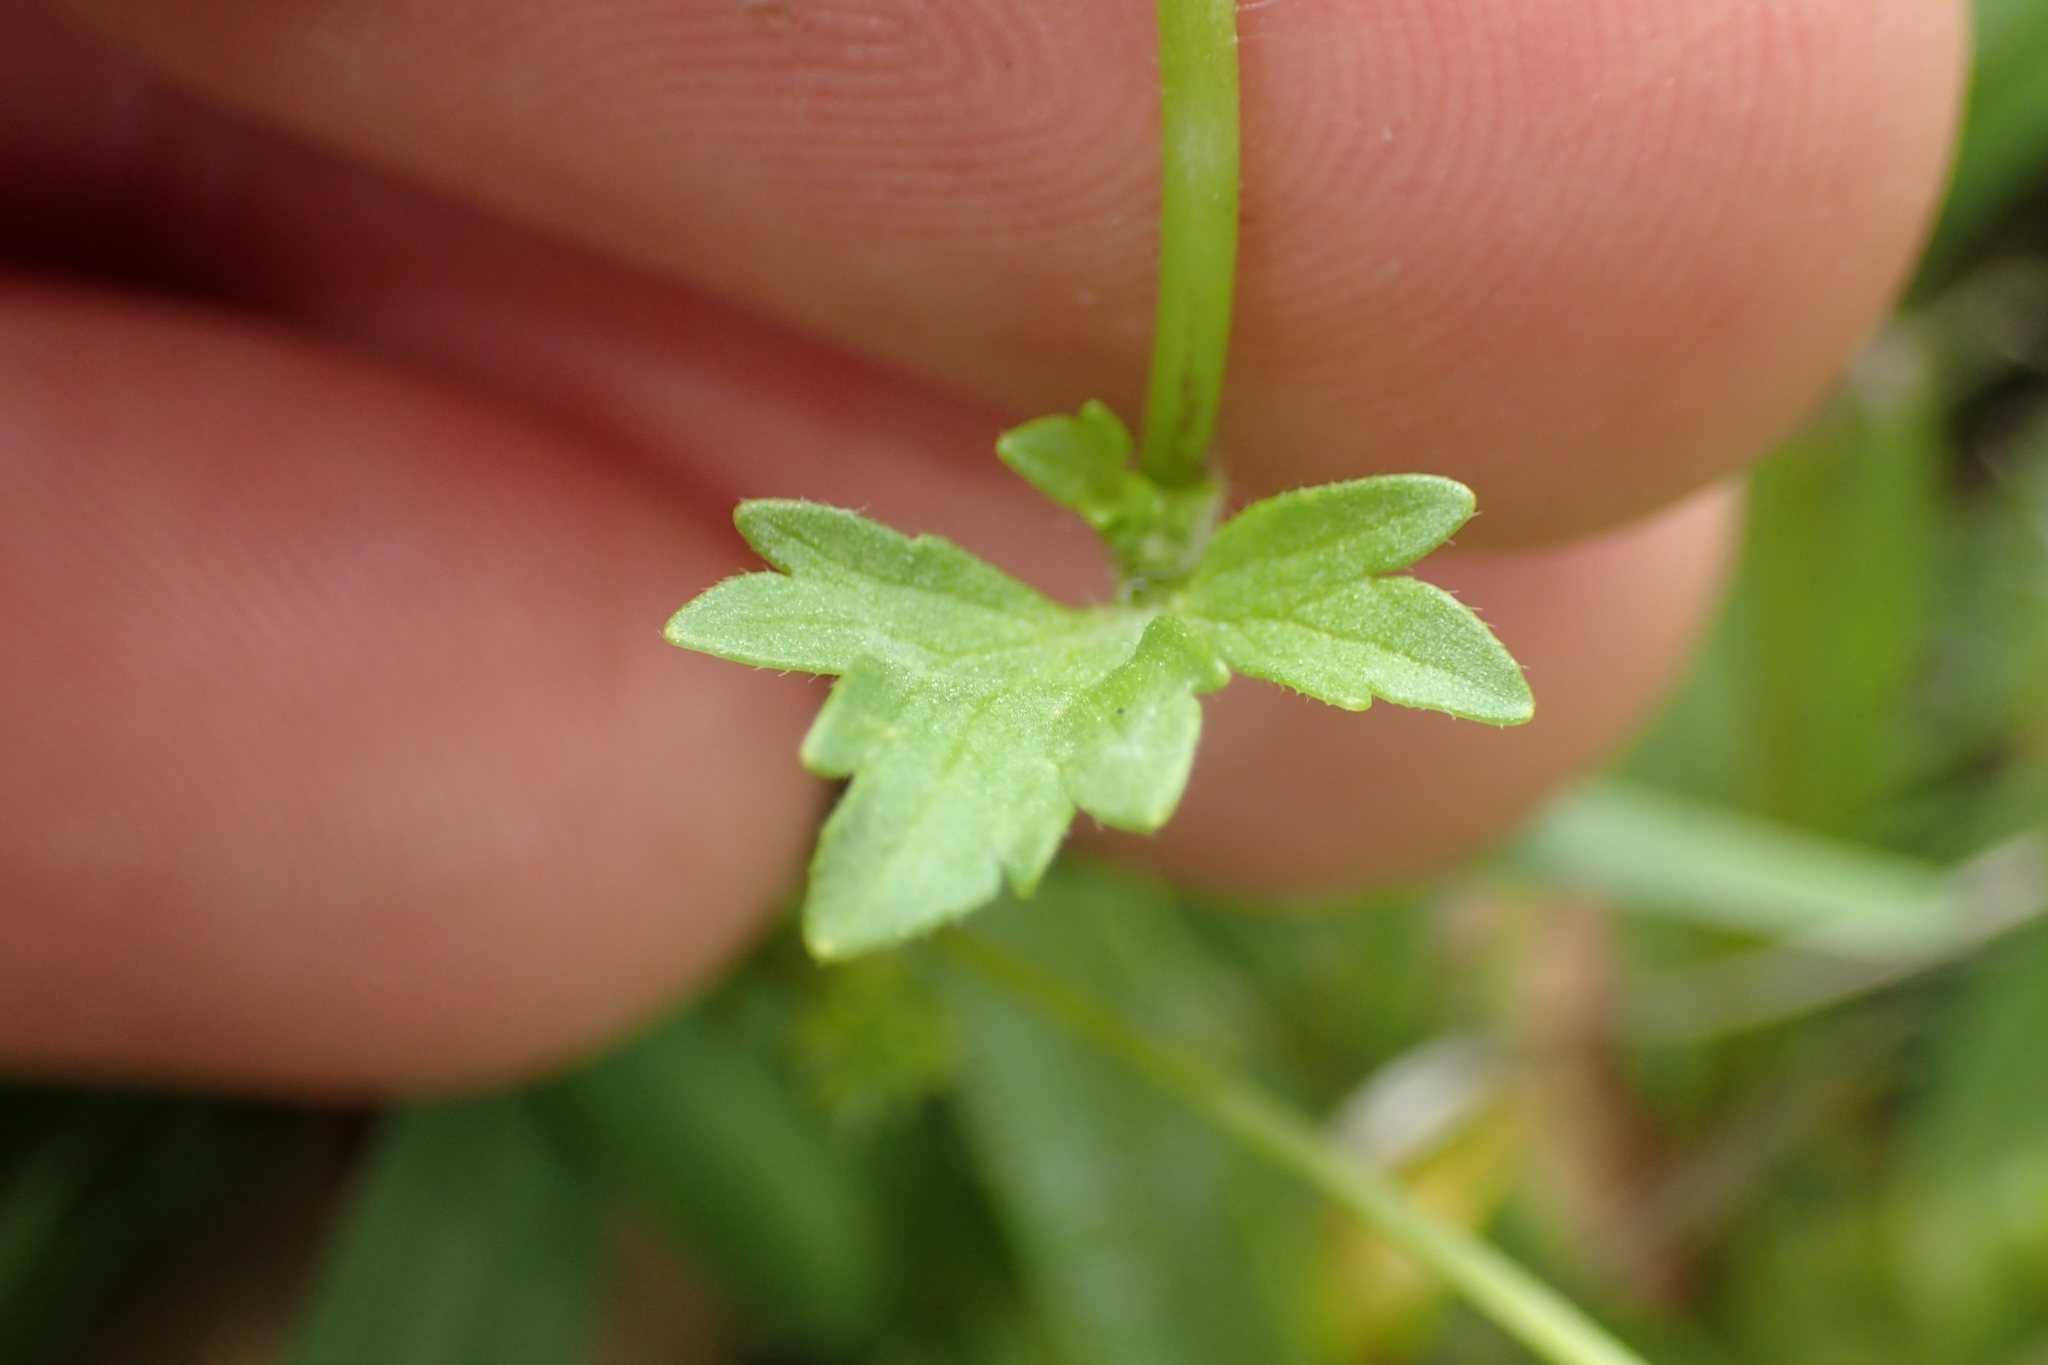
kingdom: Plantae
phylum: Tracheophyta
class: Magnoliopsida
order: Ranunculales
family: Ranunculaceae
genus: Ranunculus
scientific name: Ranunculus sardous
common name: Hairy buttercup
